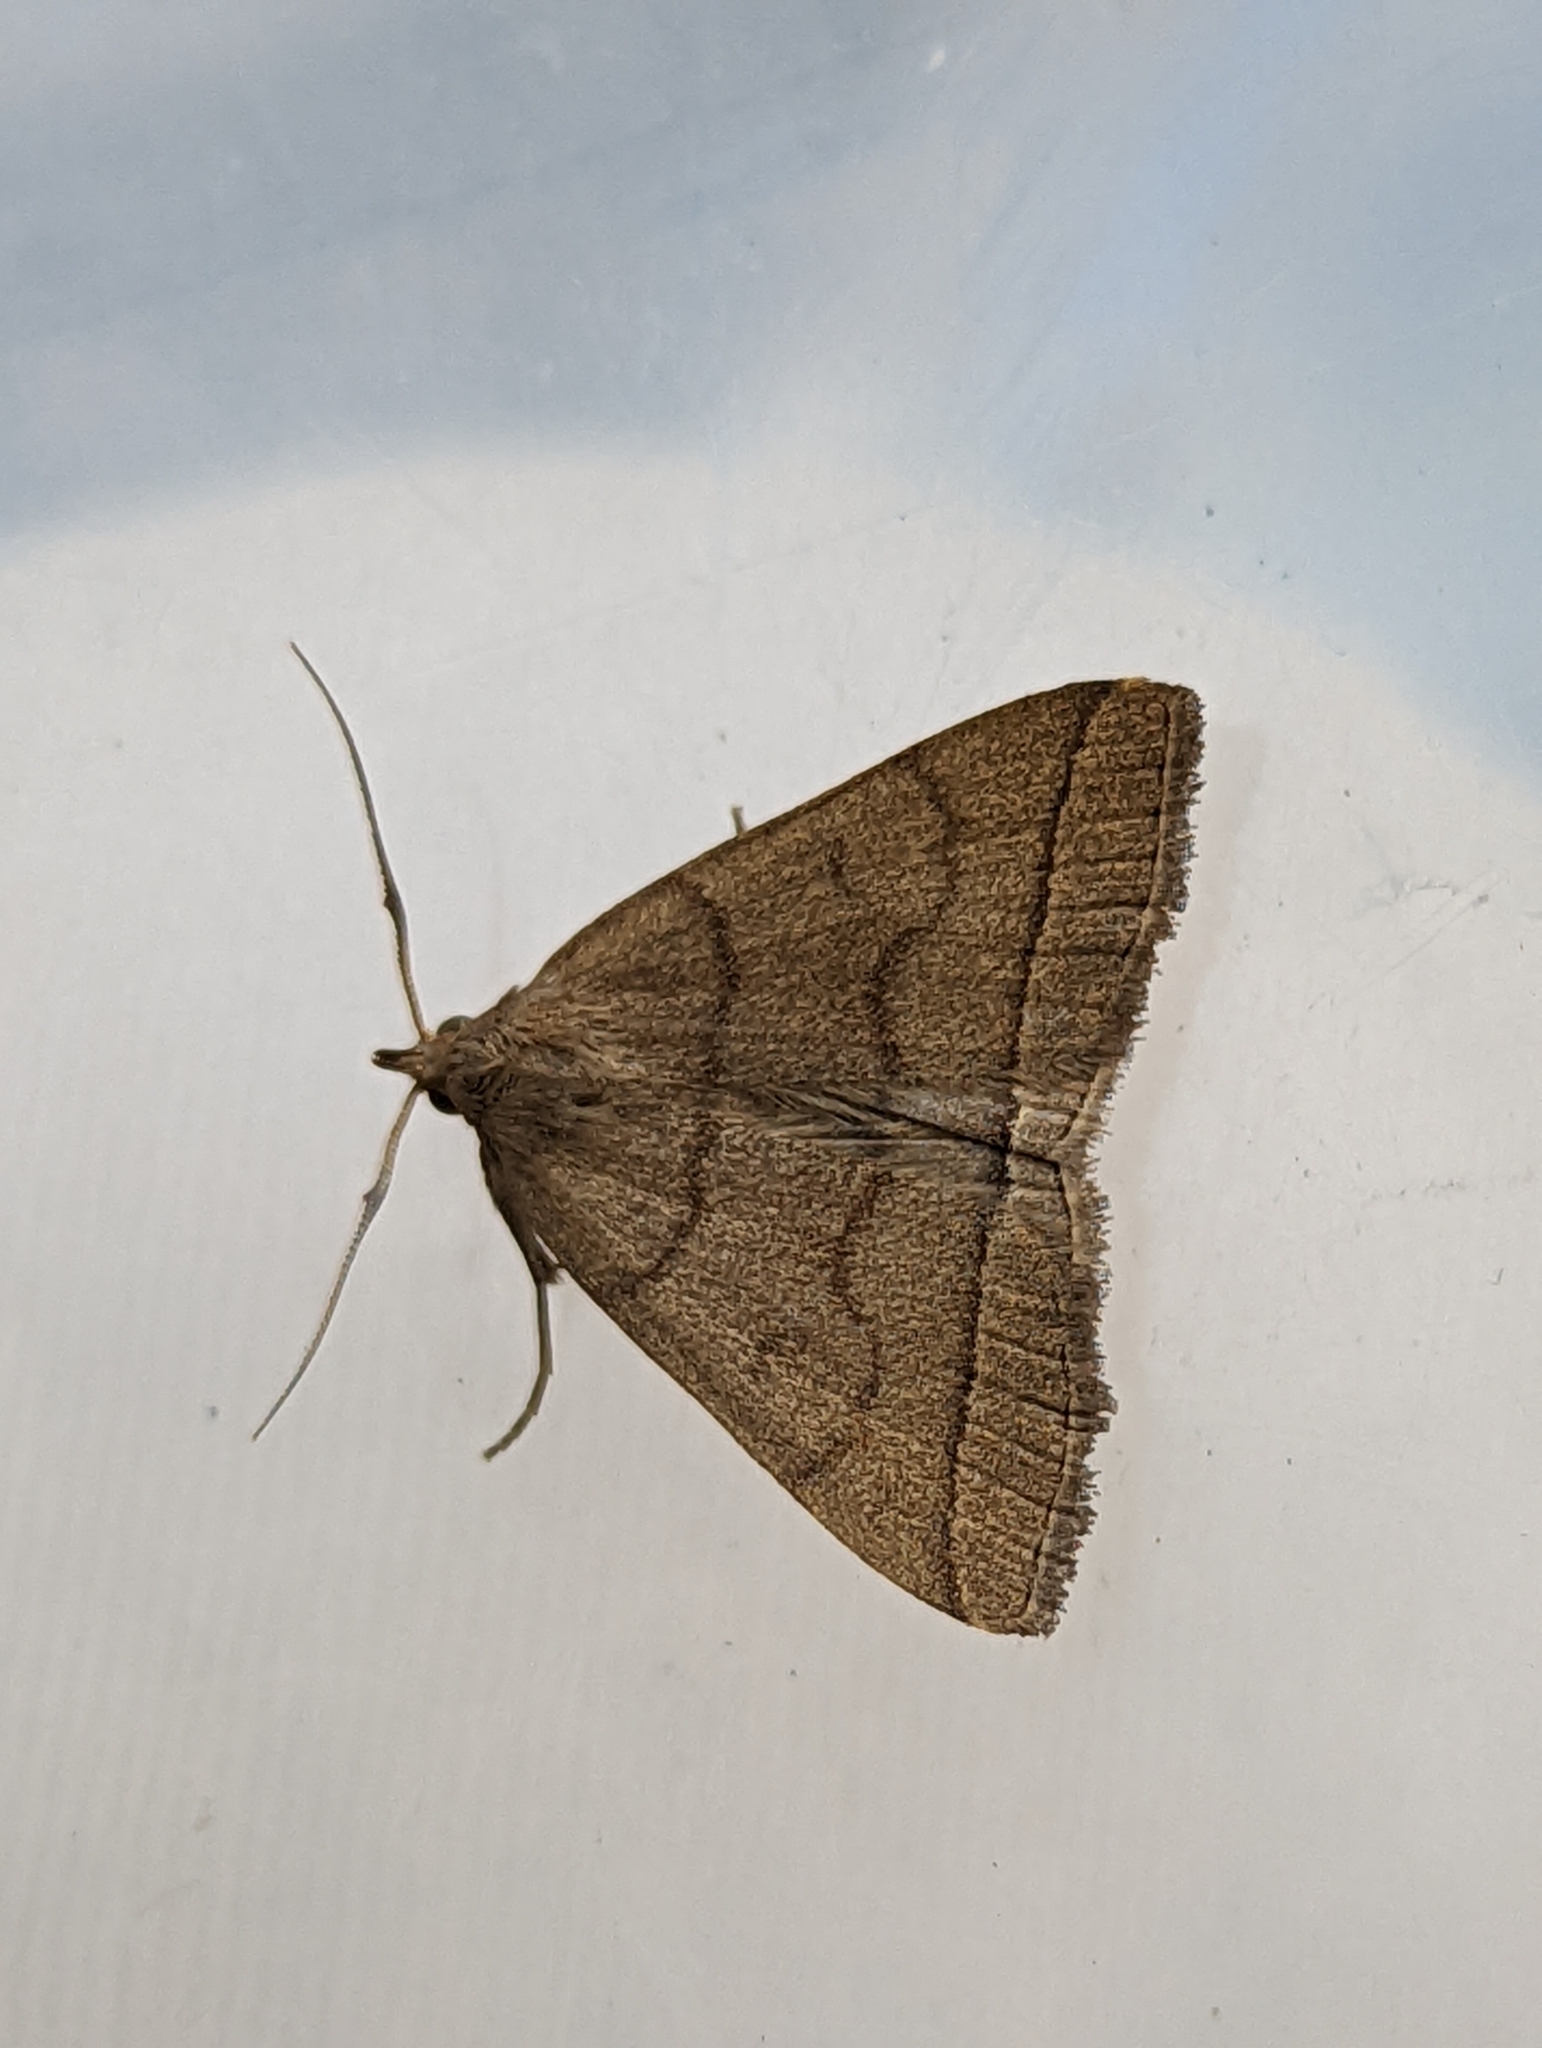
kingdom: Animalia
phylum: Arthropoda
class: Insecta
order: Lepidoptera
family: Erebidae
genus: Herminia
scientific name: Herminia tarsipennalis
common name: Fan-foot
